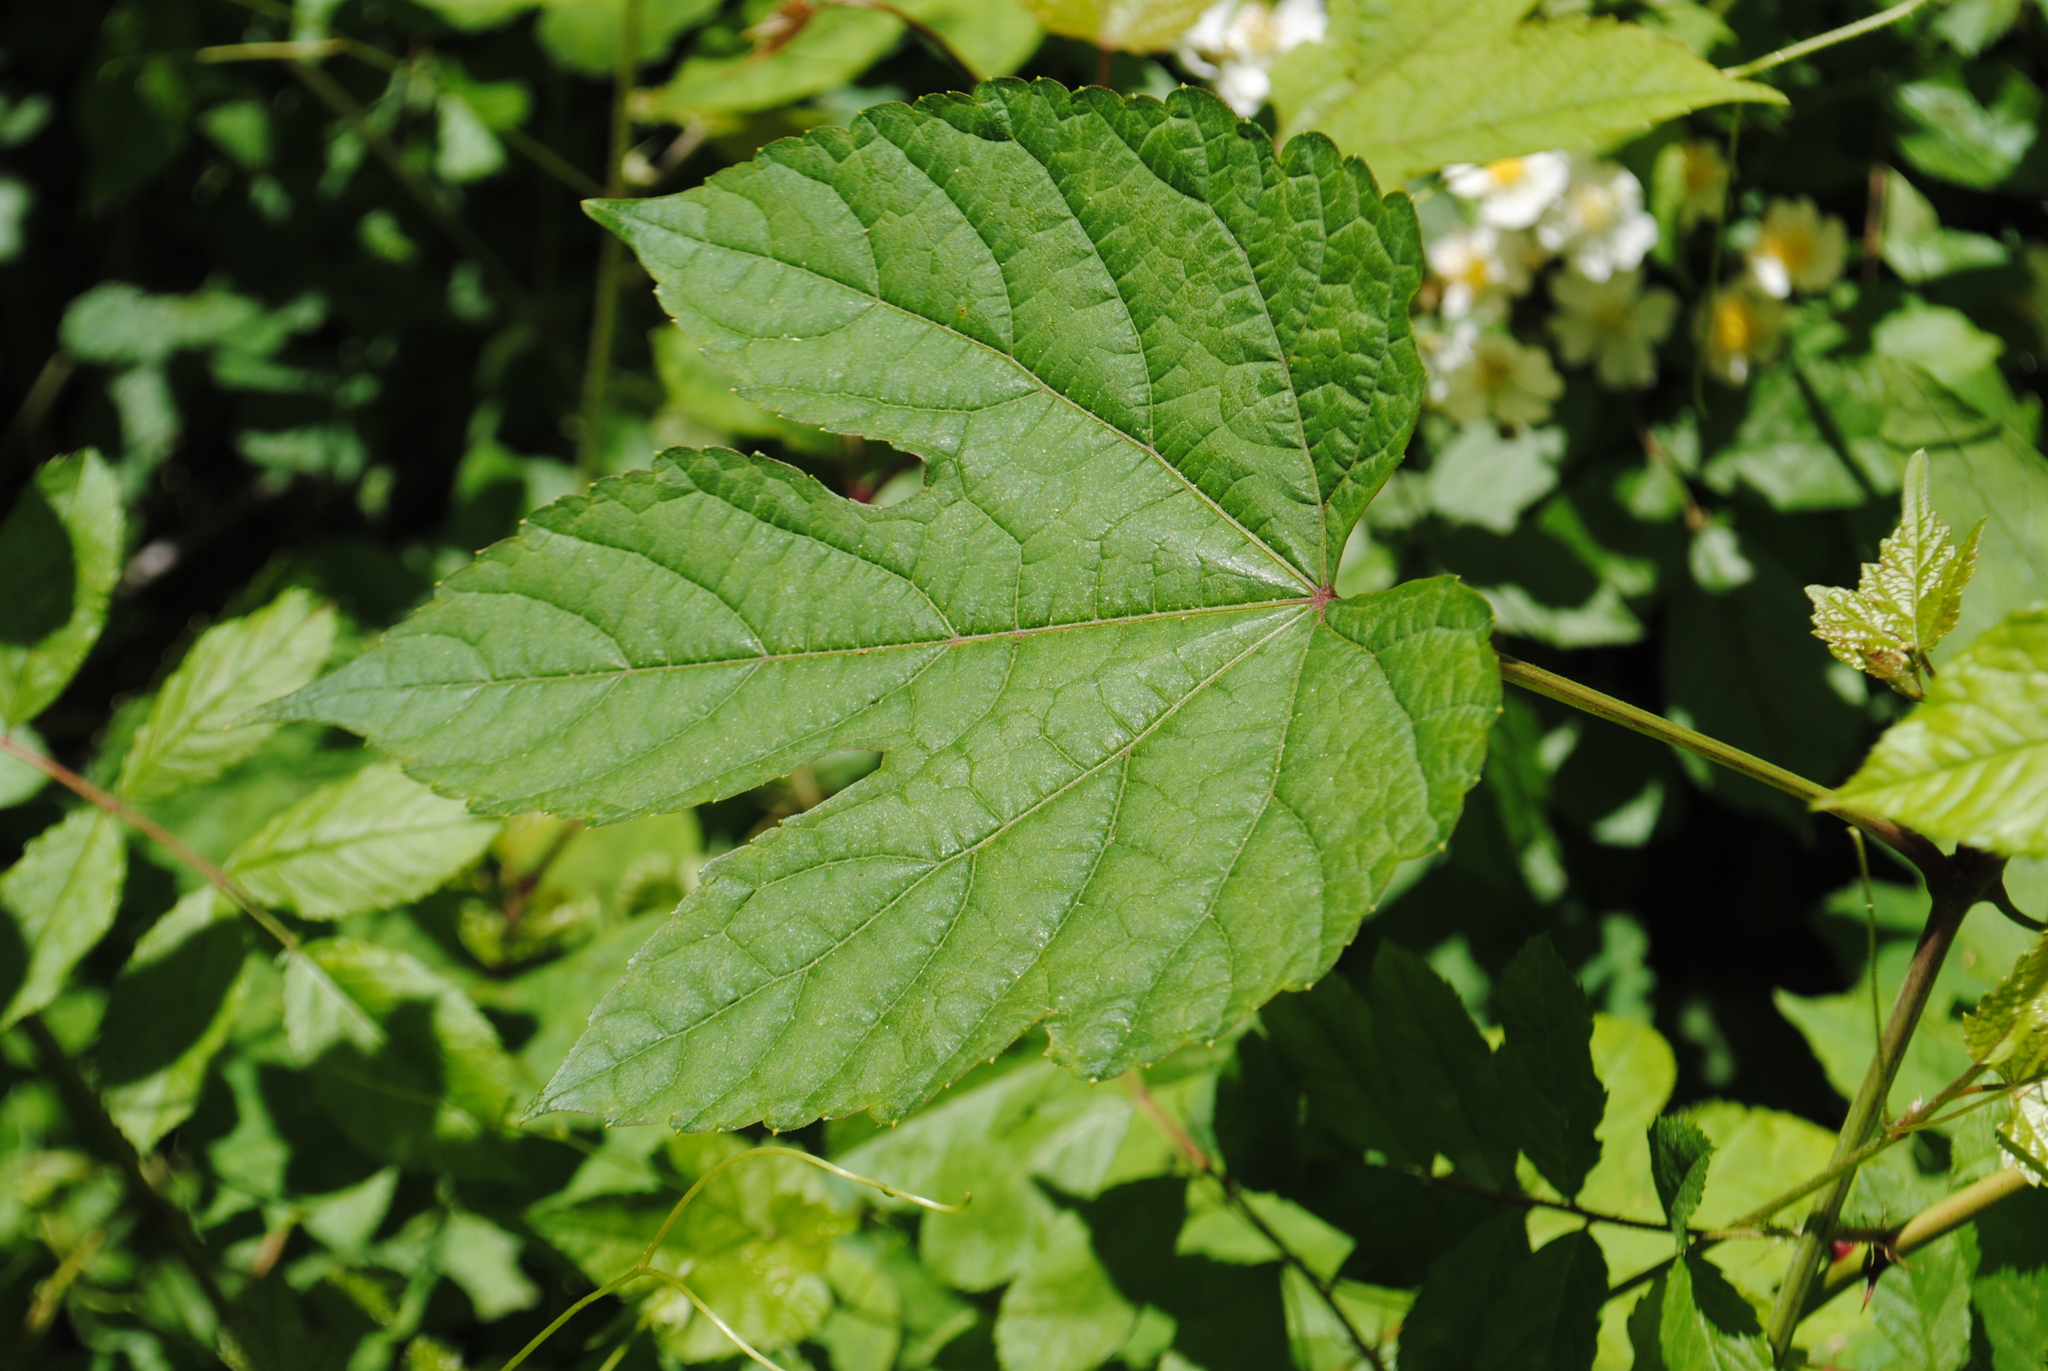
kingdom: Plantae
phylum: Tracheophyta
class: Magnoliopsida
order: Vitales
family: Vitaceae
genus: Ampelopsis
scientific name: Ampelopsis glandulosa
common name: Amur peppervine
